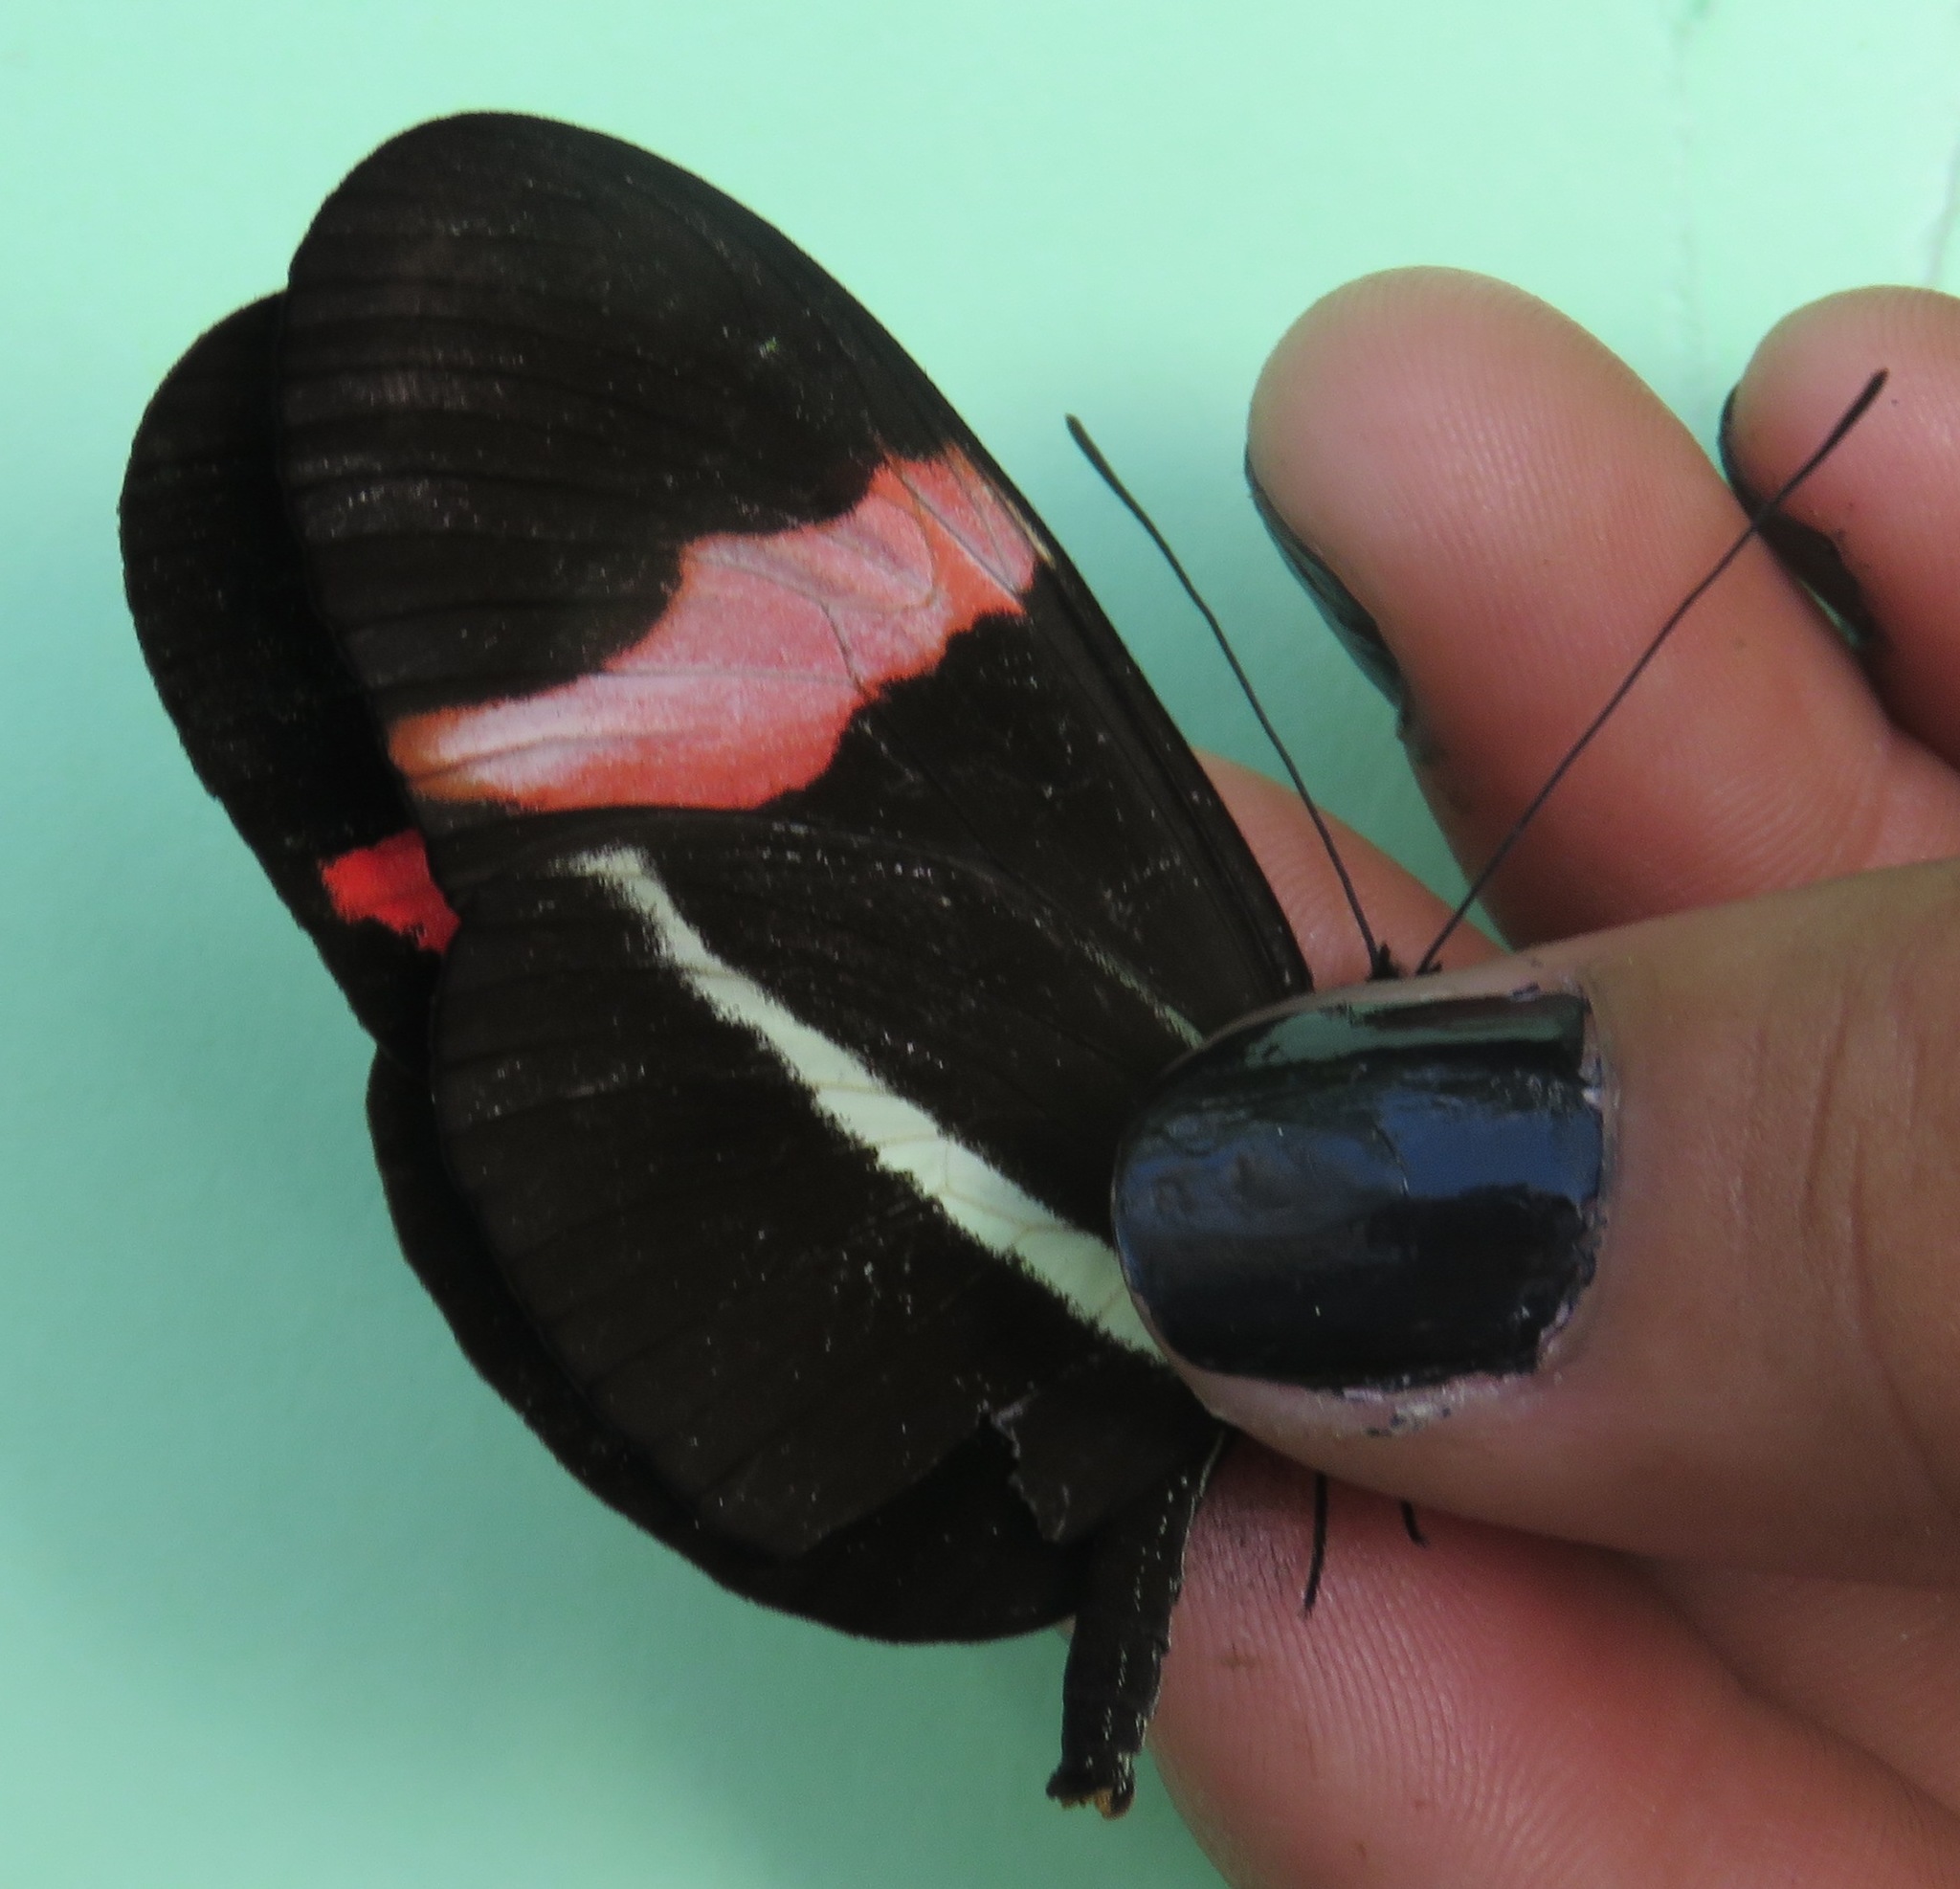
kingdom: Animalia
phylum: Arthropoda
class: Insecta
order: Lepidoptera
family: Nymphalidae
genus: Tirumala
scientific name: Tirumala petiverana
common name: Blue monarch
